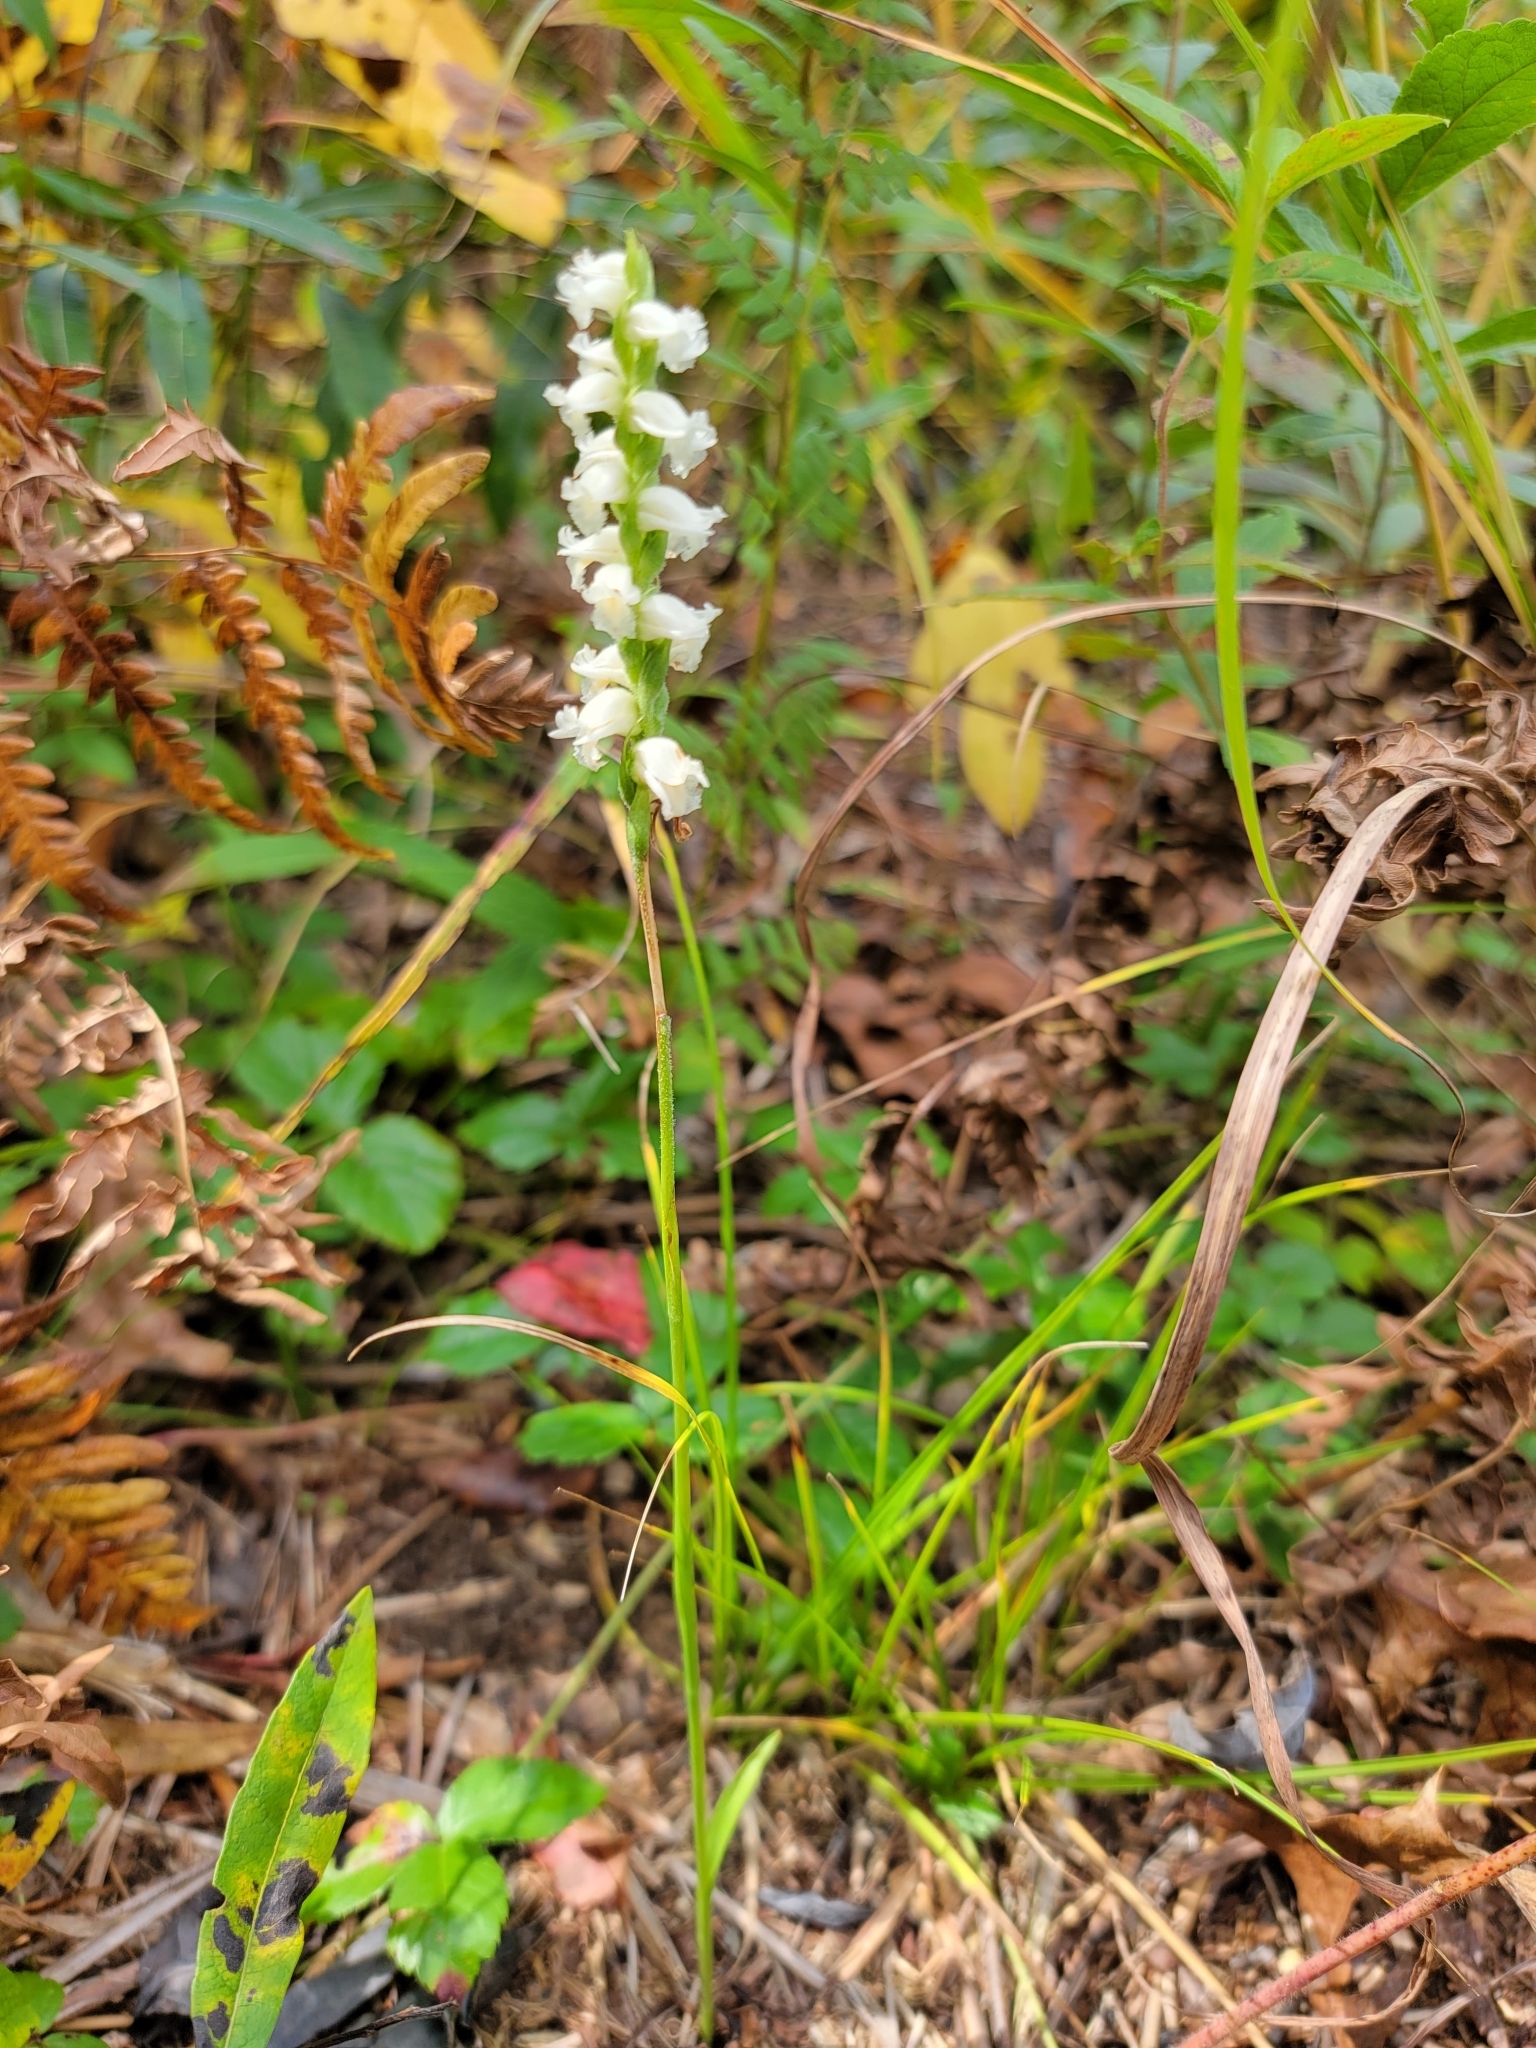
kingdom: Plantae
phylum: Tracheophyta
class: Liliopsida
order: Asparagales
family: Orchidaceae
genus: Spiranthes
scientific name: Spiranthes ochroleuca
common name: Yellow ladies'-tresses
